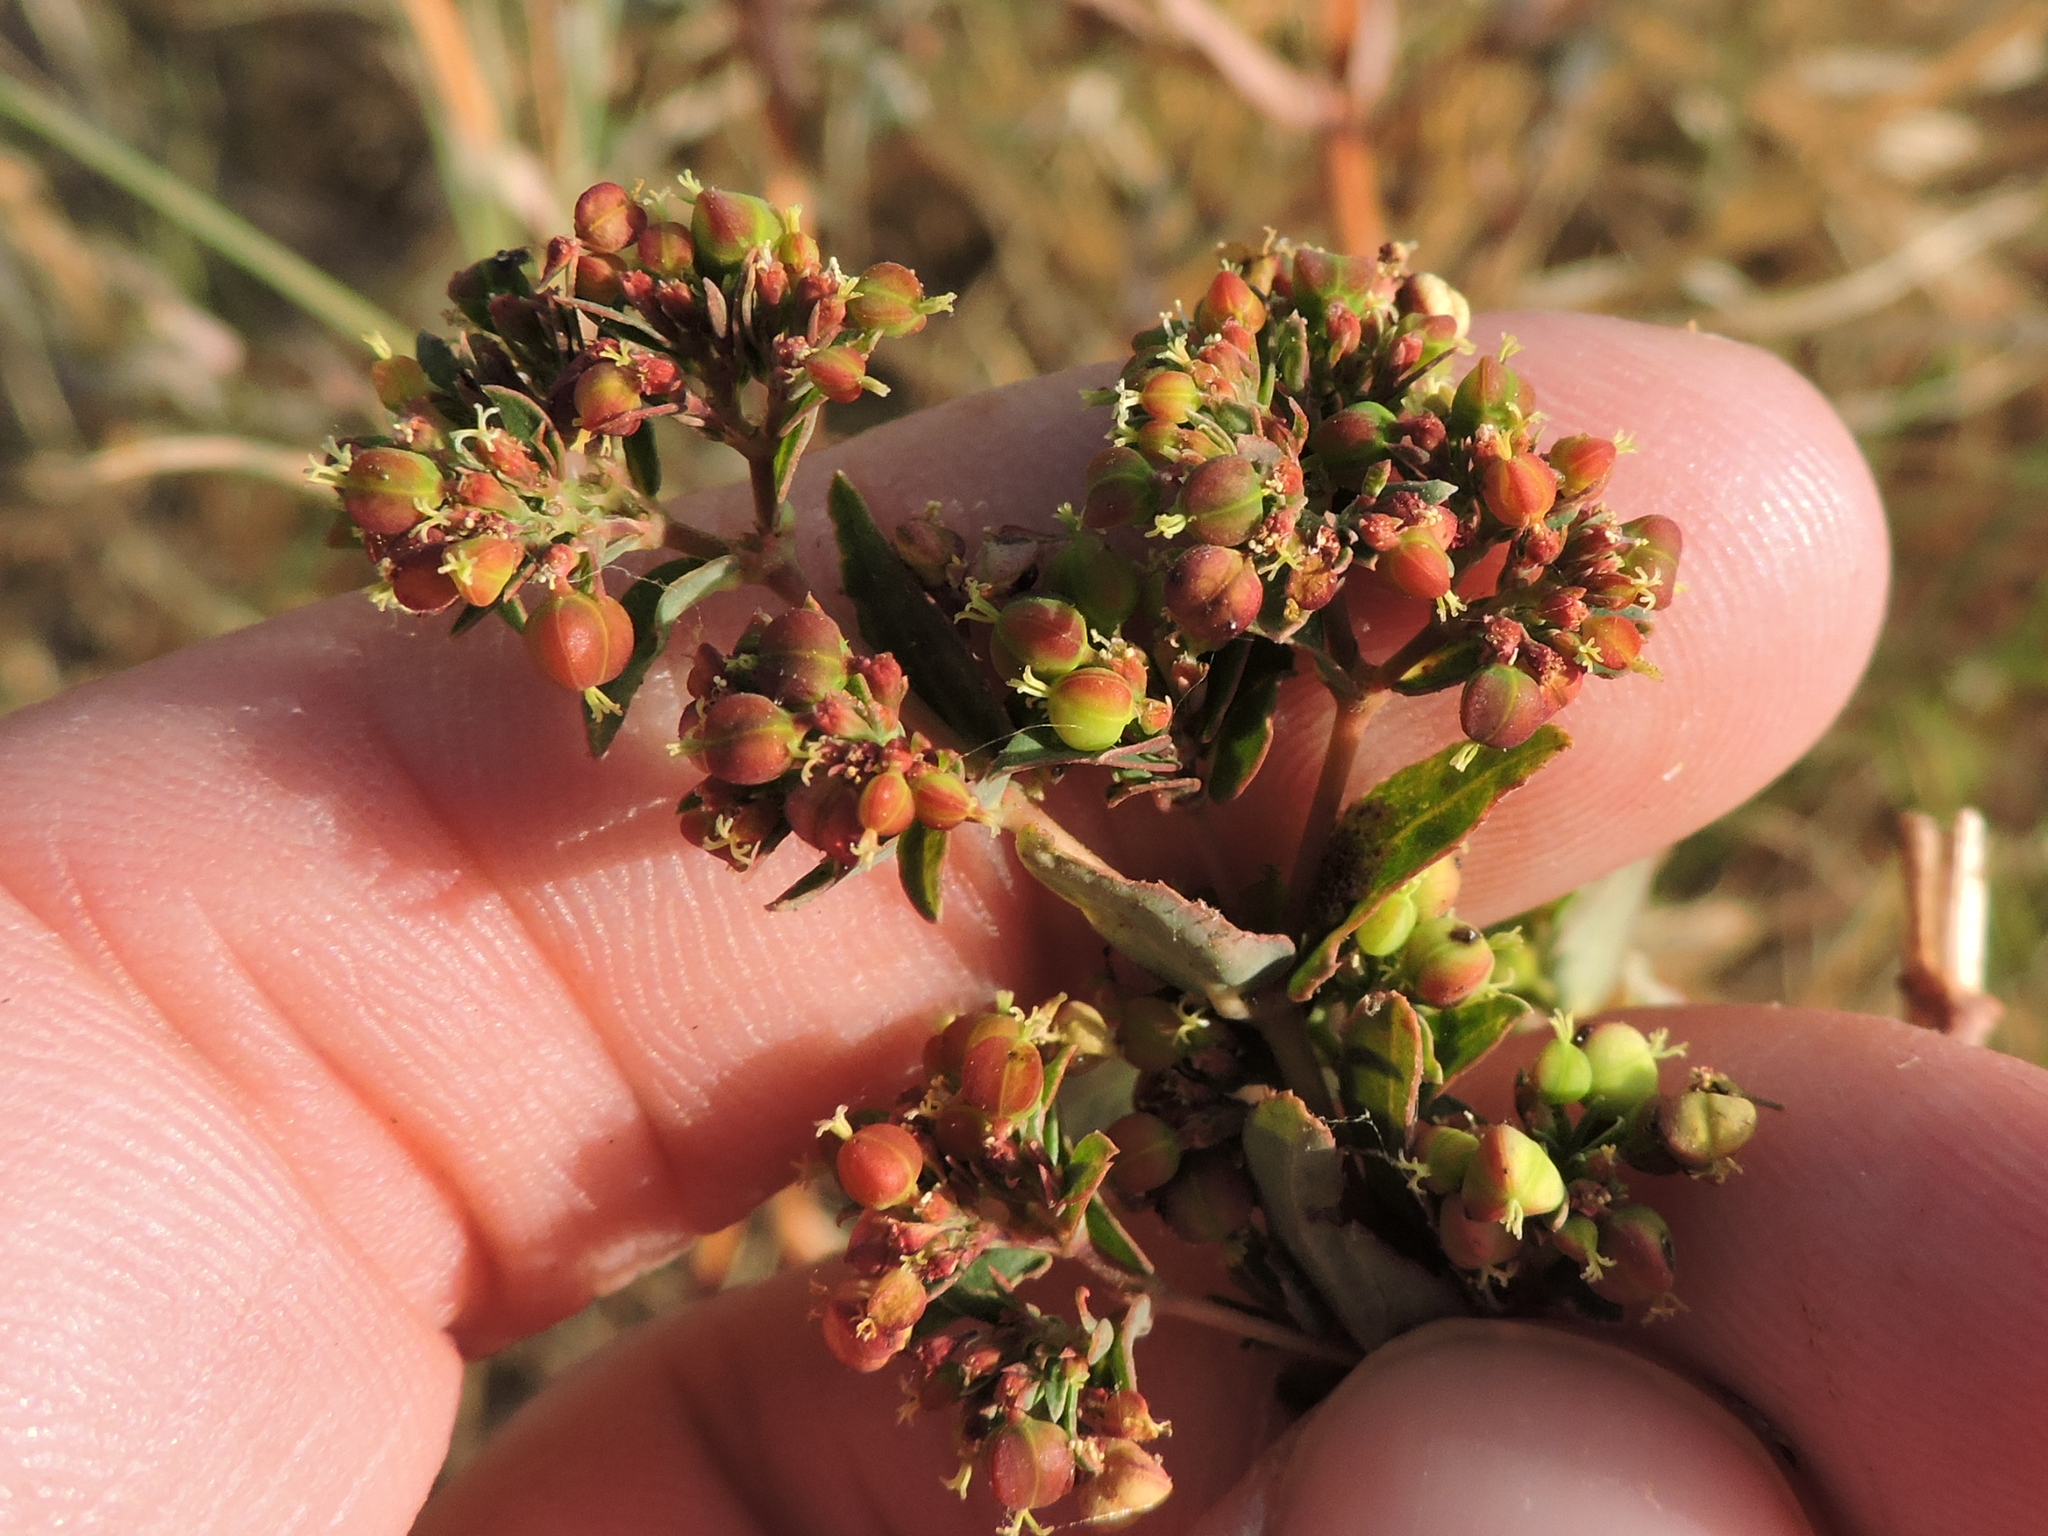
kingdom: Plantae
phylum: Tracheophyta
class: Magnoliopsida
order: Malpighiales
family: Euphorbiaceae
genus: Euphorbia
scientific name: Euphorbia hyssopifolia
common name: Hyssopleaf sandmat
